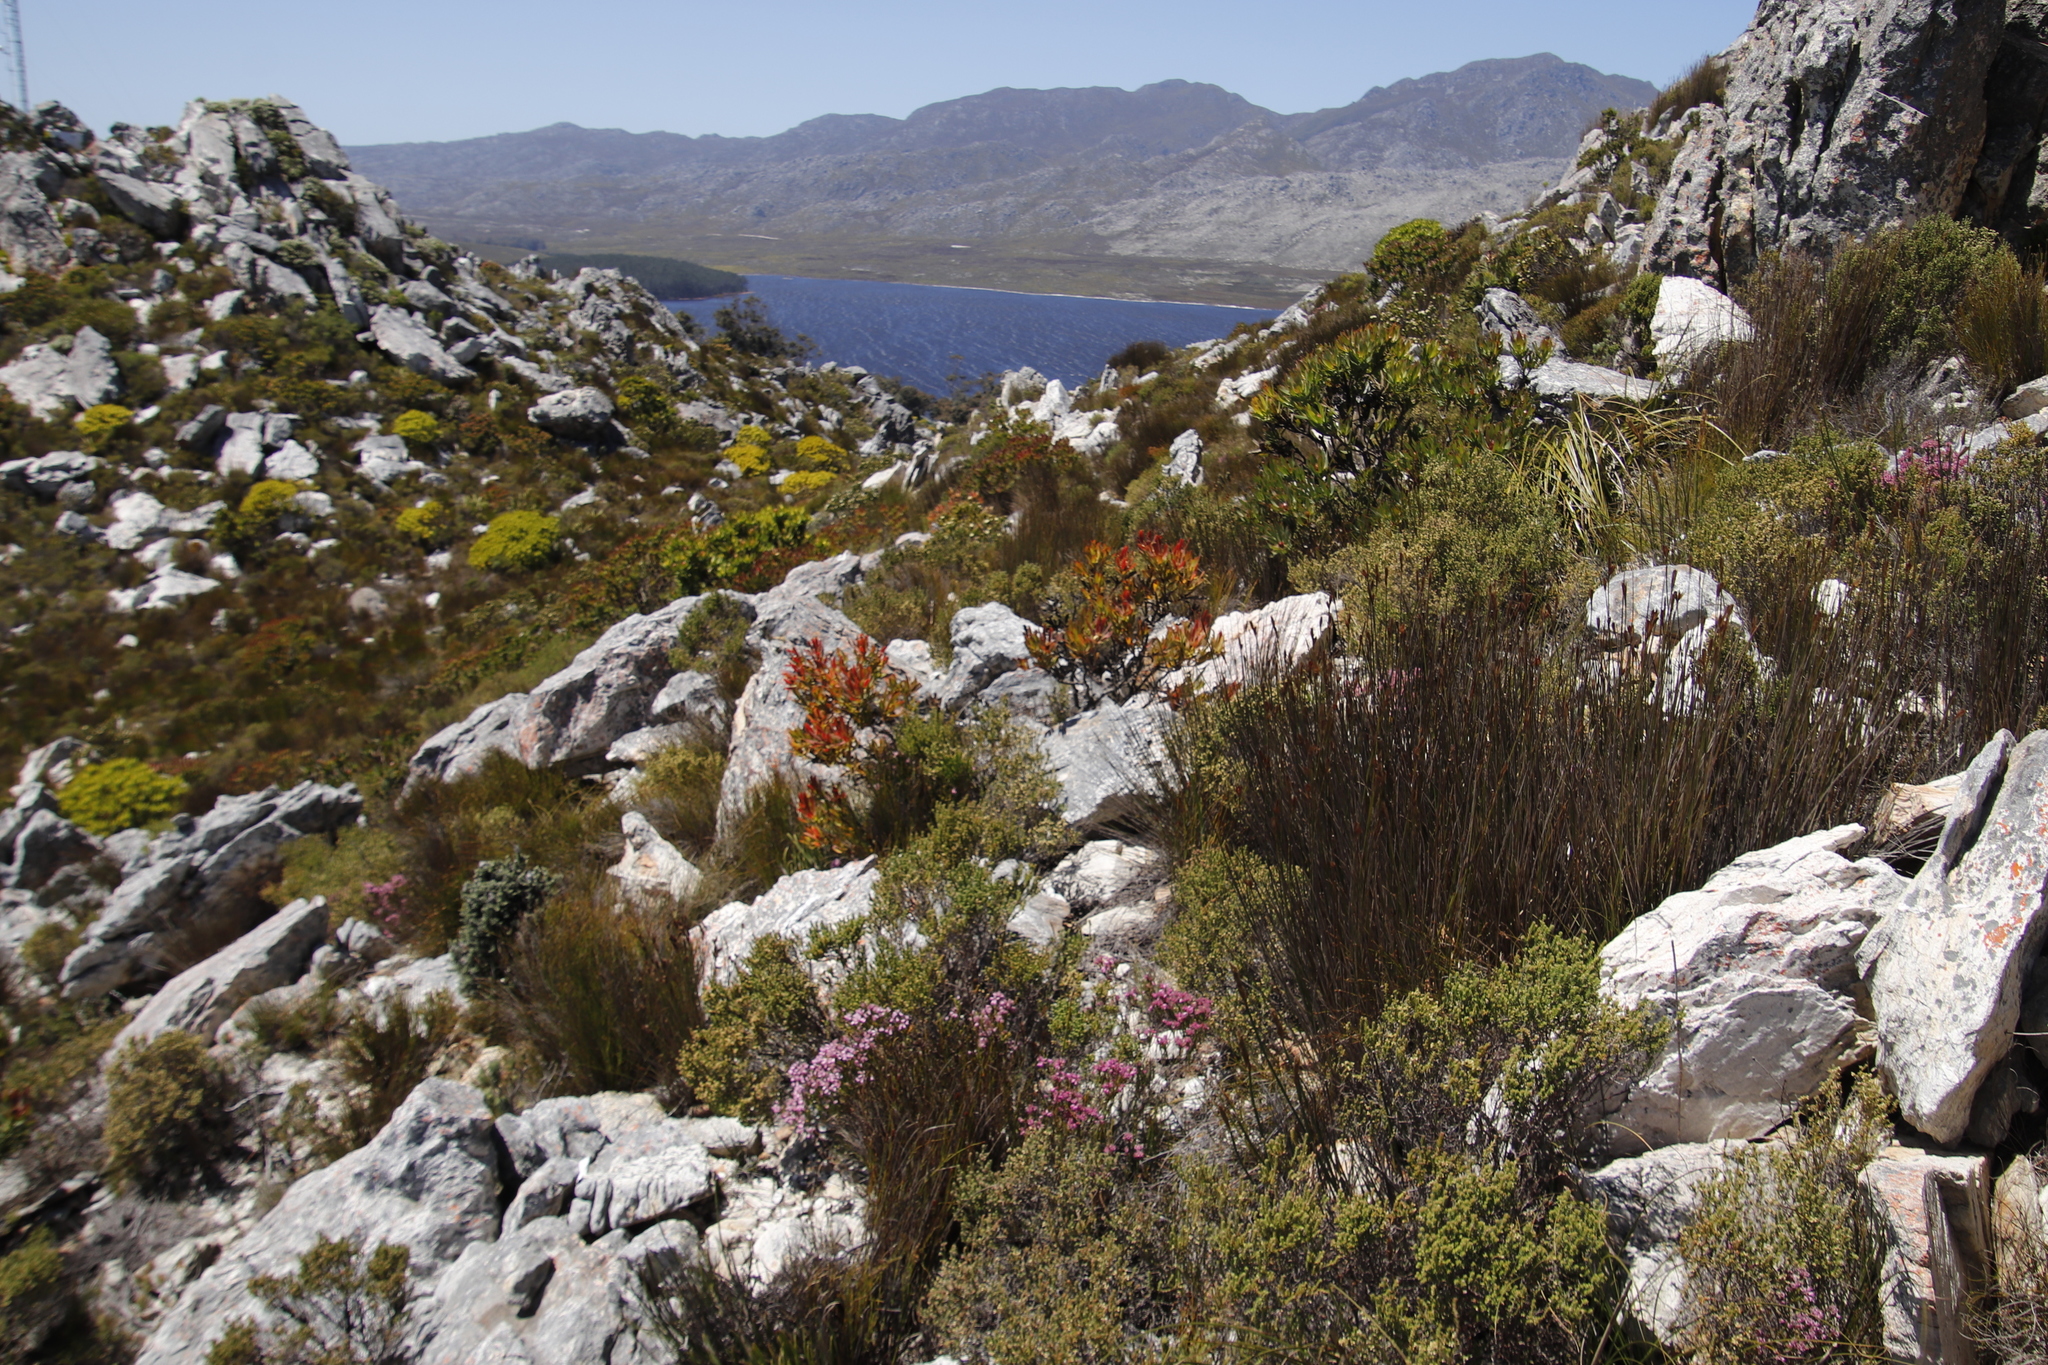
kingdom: Plantae
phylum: Tracheophyta
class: Magnoliopsida
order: Proteales
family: Proteaceae
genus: Leucadendron
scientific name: Leucadendron sessile
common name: Western sunbush
